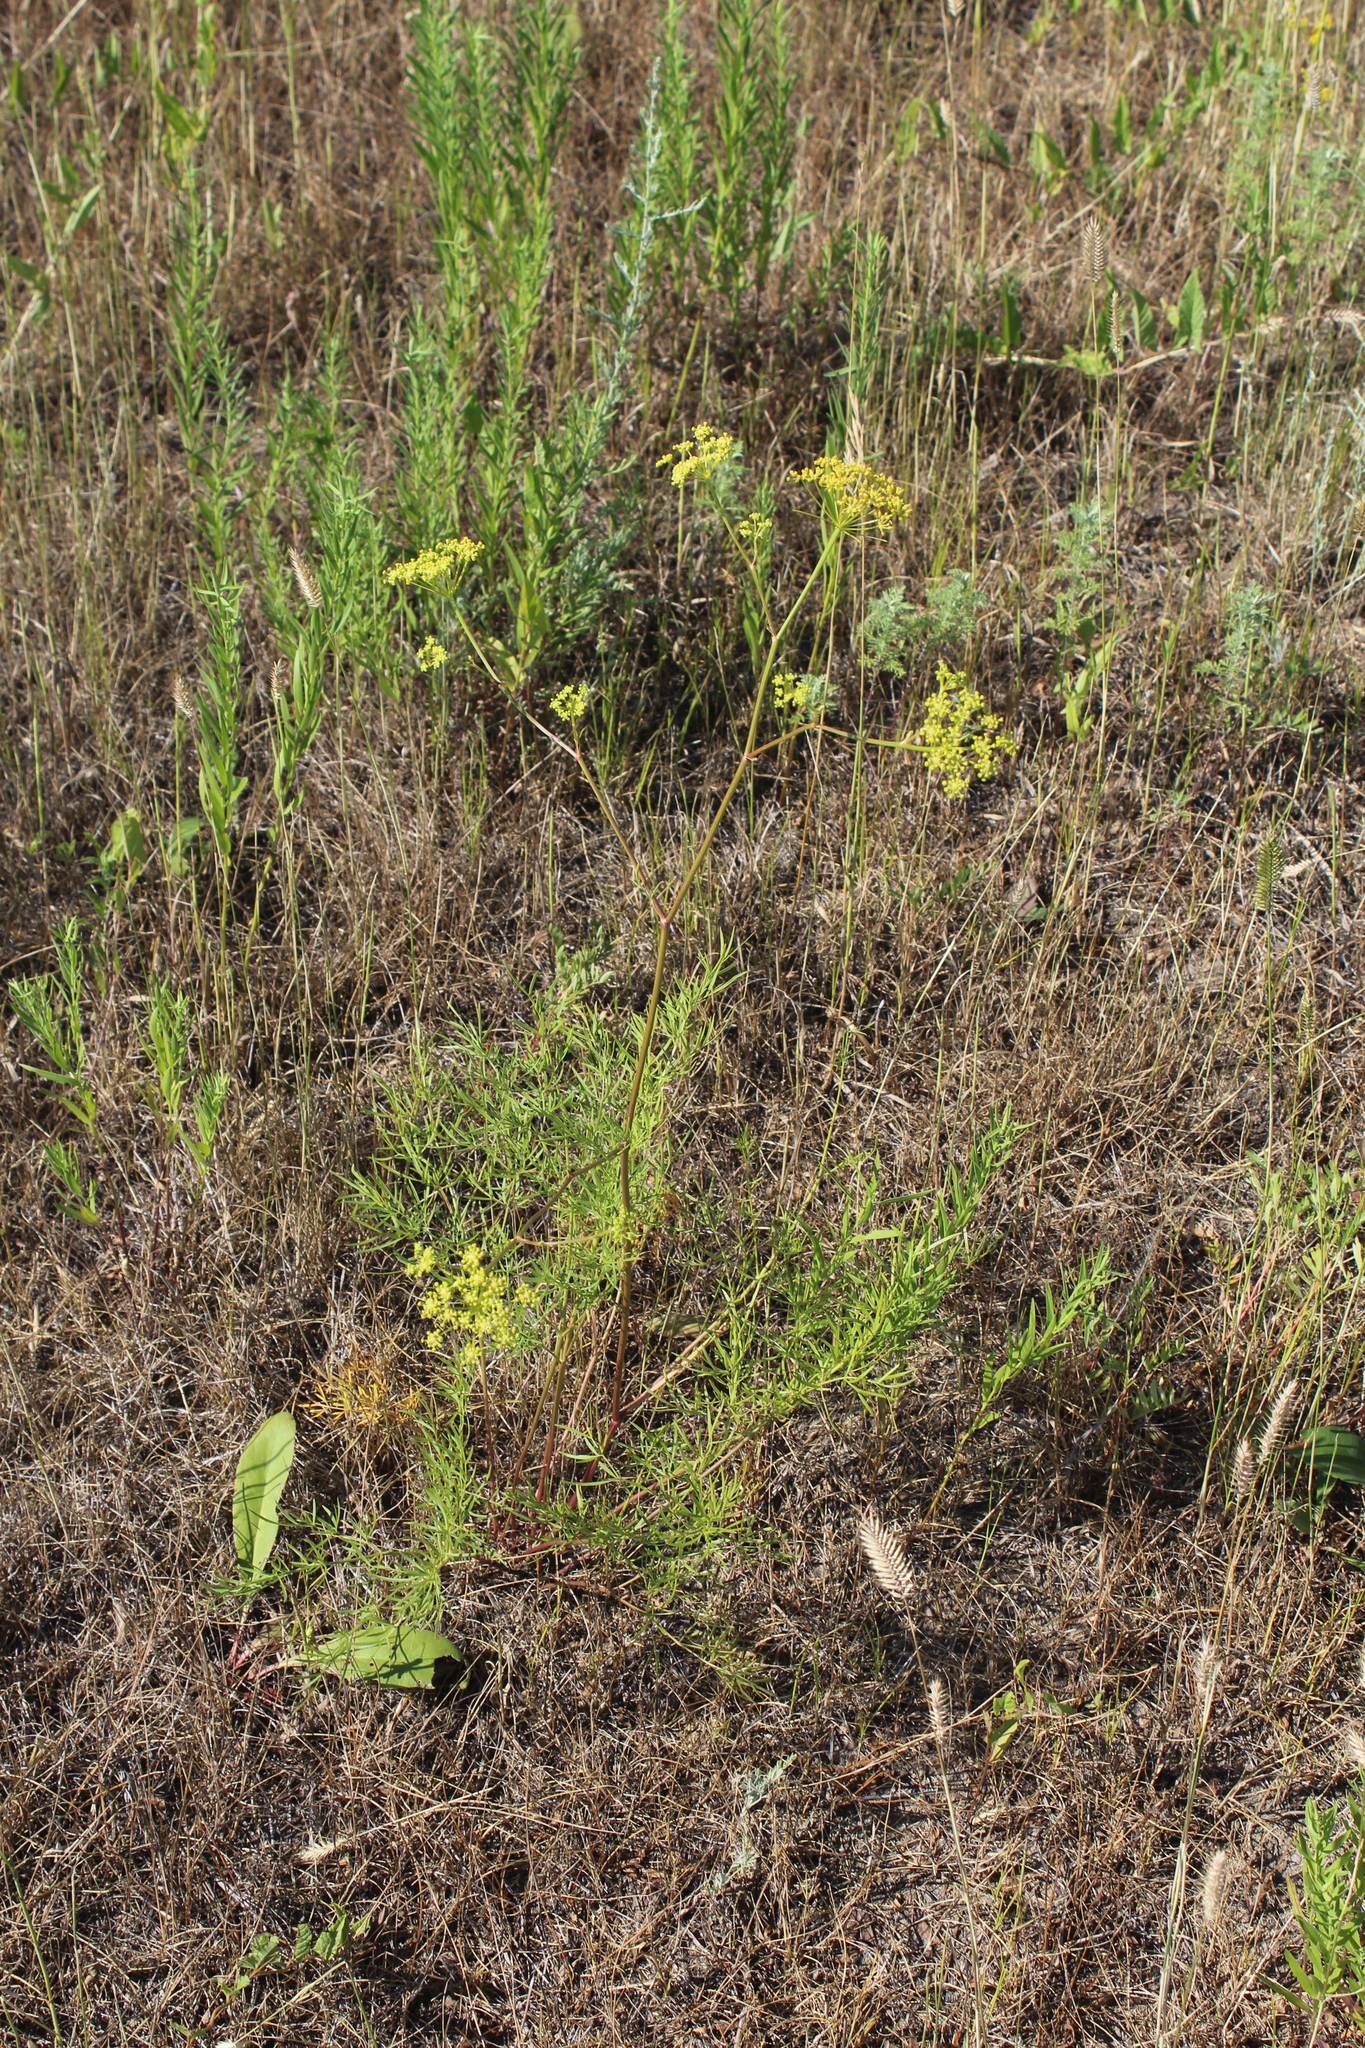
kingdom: Plantae
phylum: Tracheophyta
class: Magnoliopsida
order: Apiales
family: Apiaceae
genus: Silaum
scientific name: Silaum silaus
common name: Pepper-saxifrage
